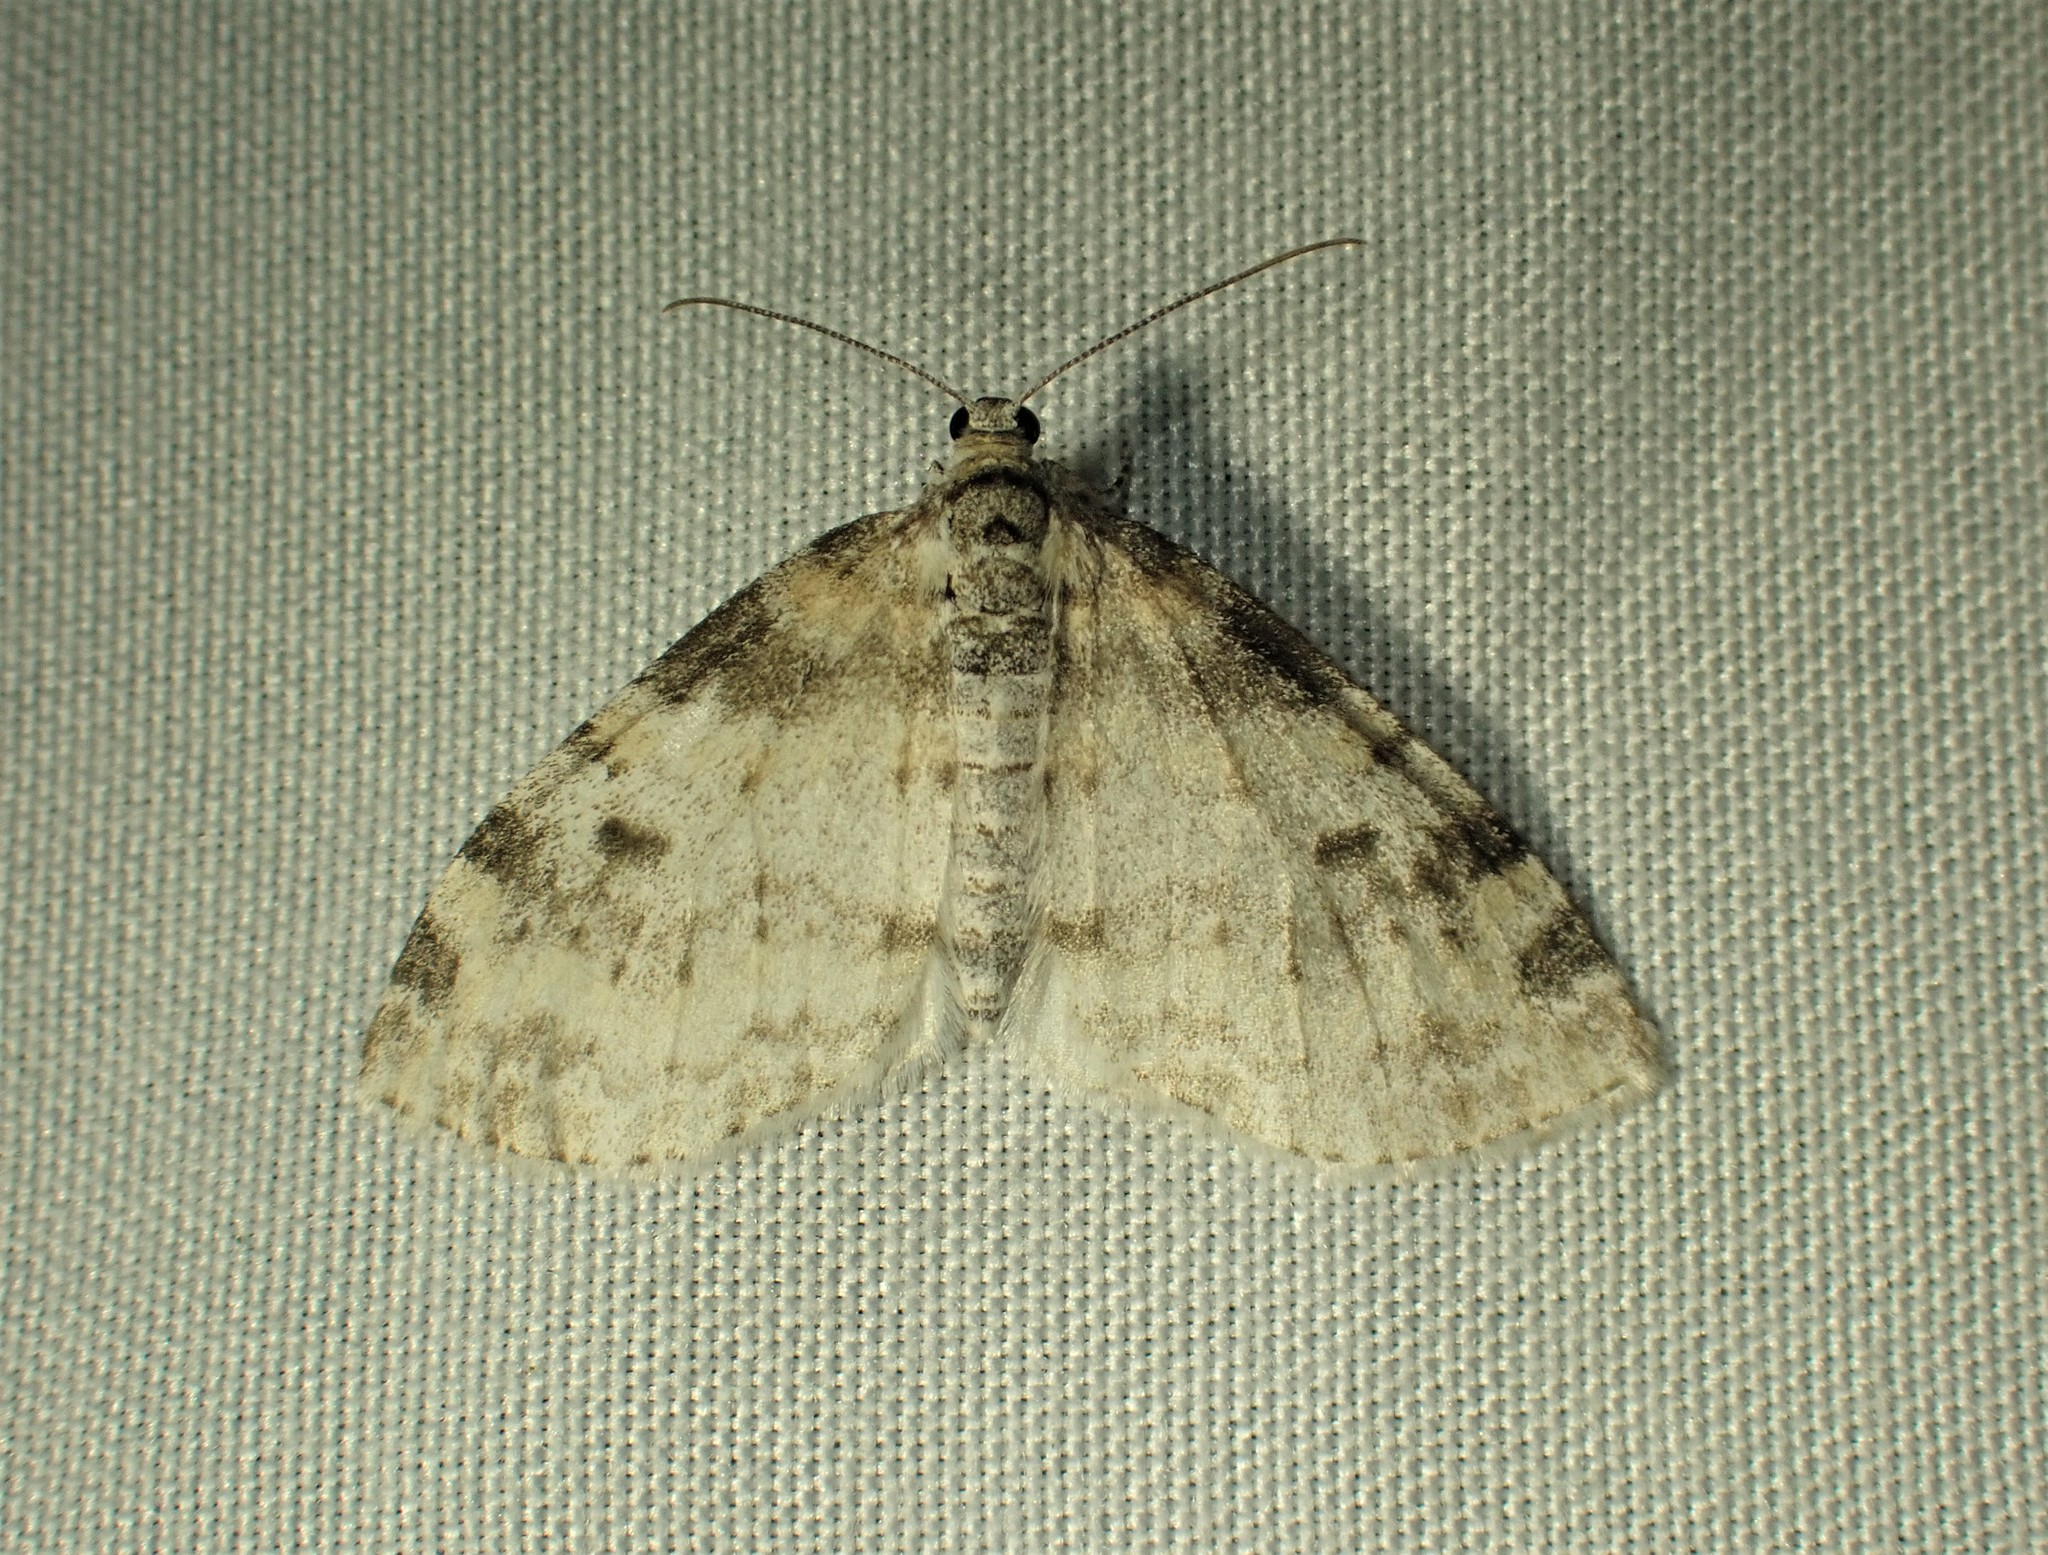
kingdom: Animalia
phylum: Arthropoda
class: Insecta
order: Lepidoptera
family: Geometridae
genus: Lobophora
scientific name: Lobophora nivigerata
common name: Powdered bigwing
